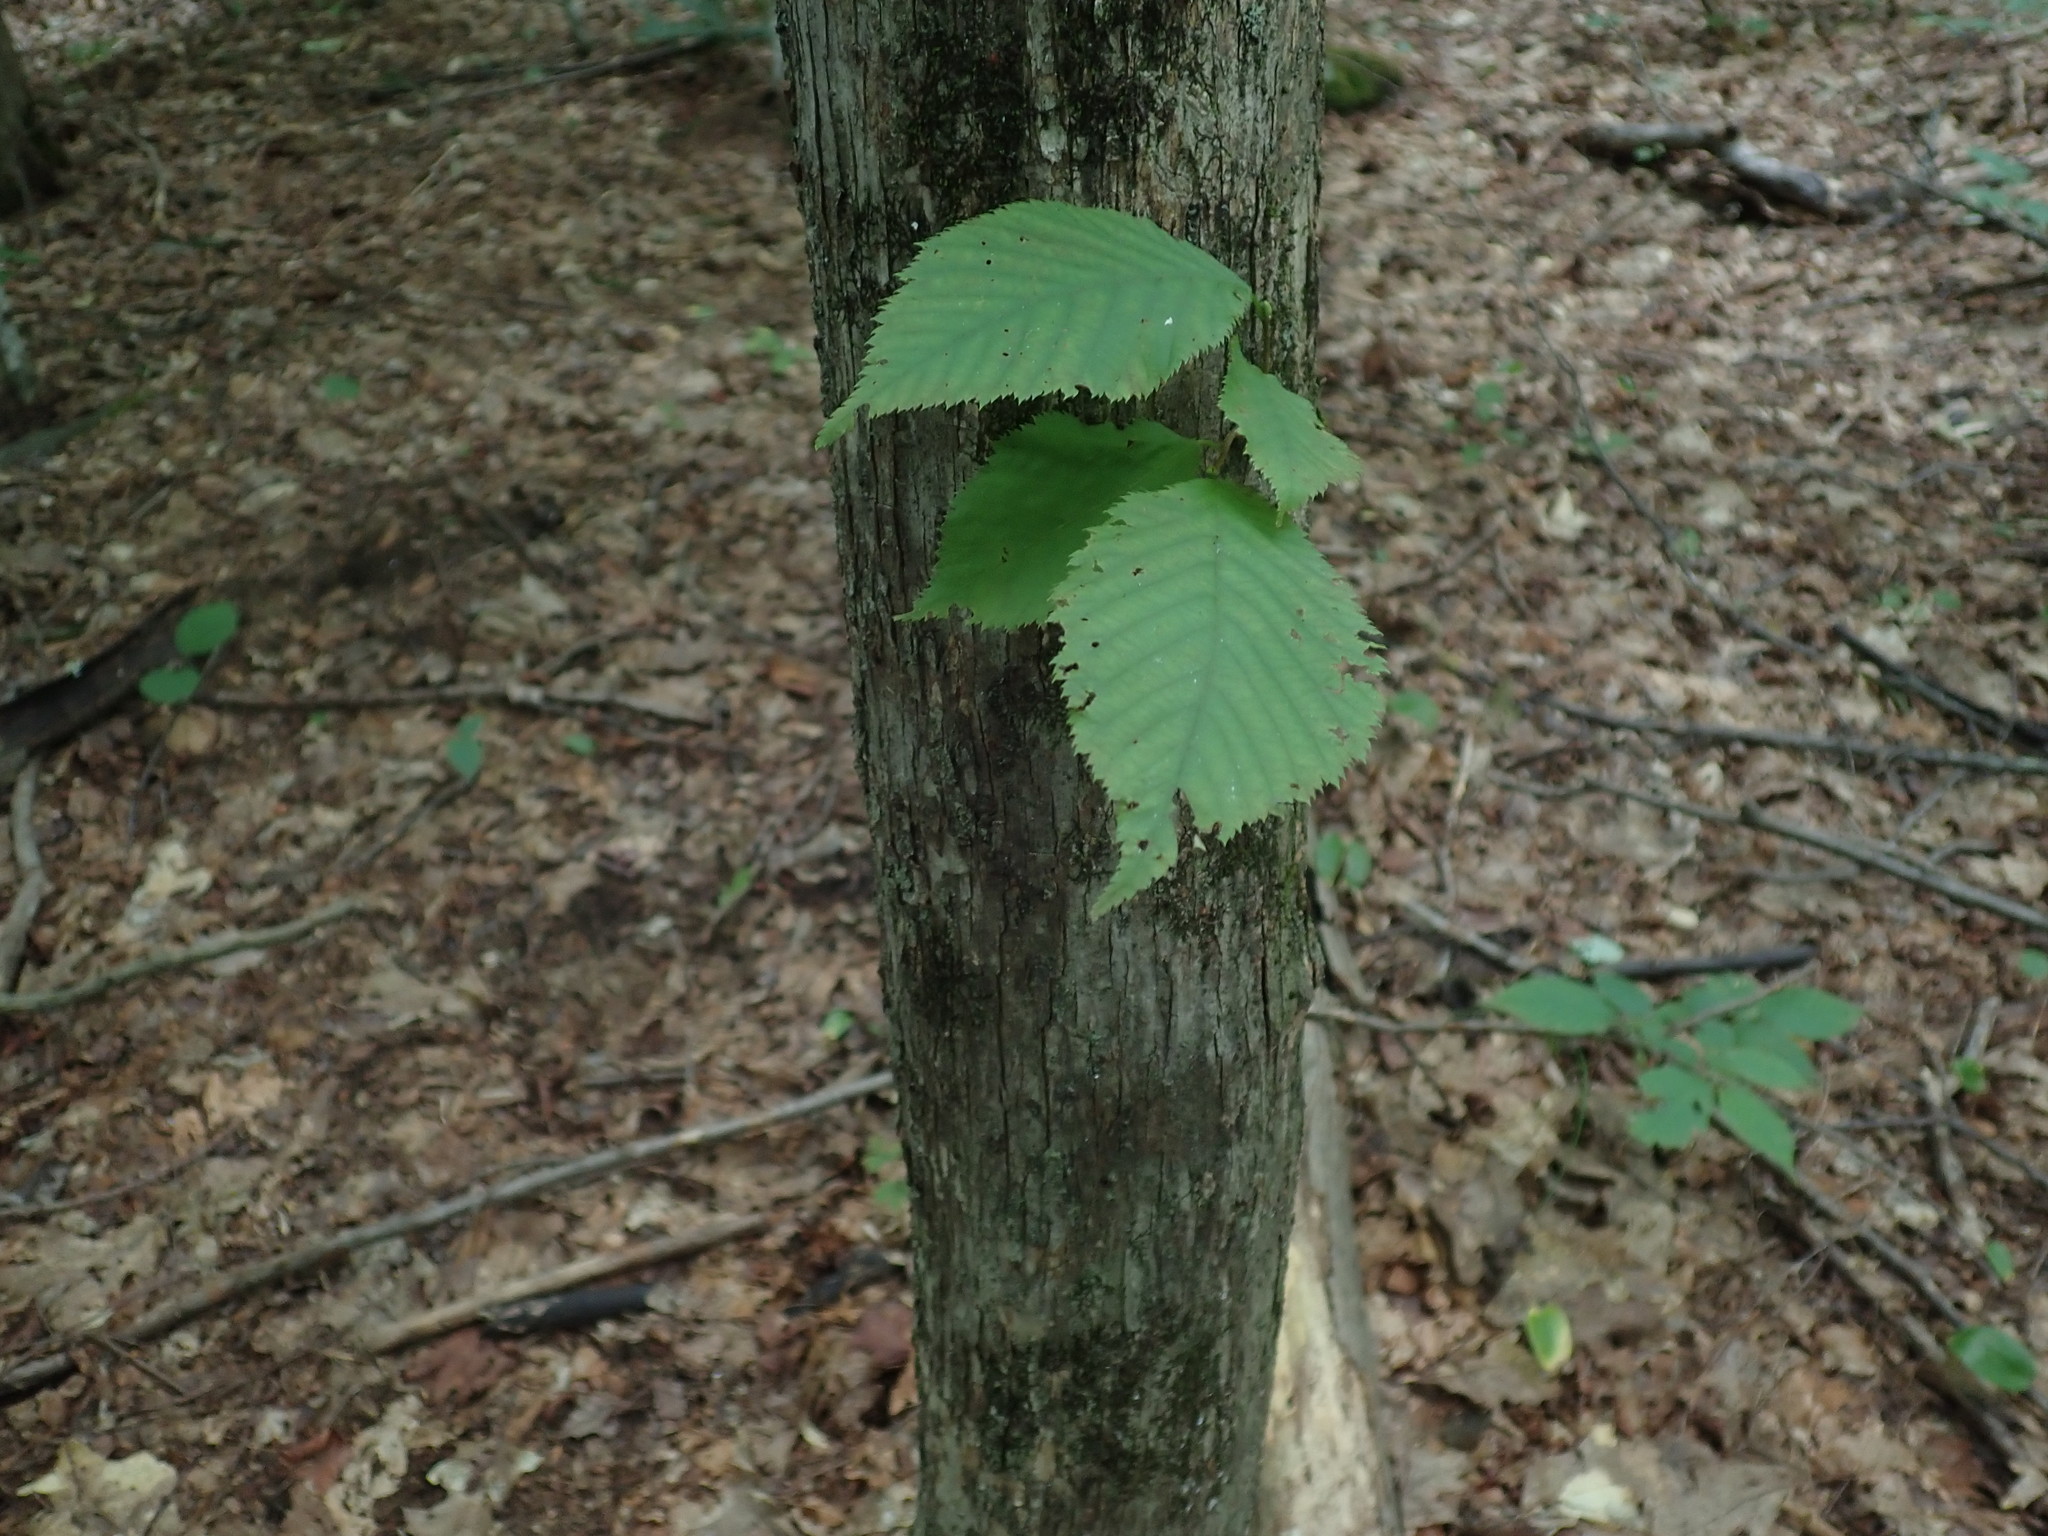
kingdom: Plantae
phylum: Tracheophyta
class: Magnoliopsida
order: Fagales
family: Betulaceae
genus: Ostrya
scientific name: Ostrya virginiana
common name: Ironwood
